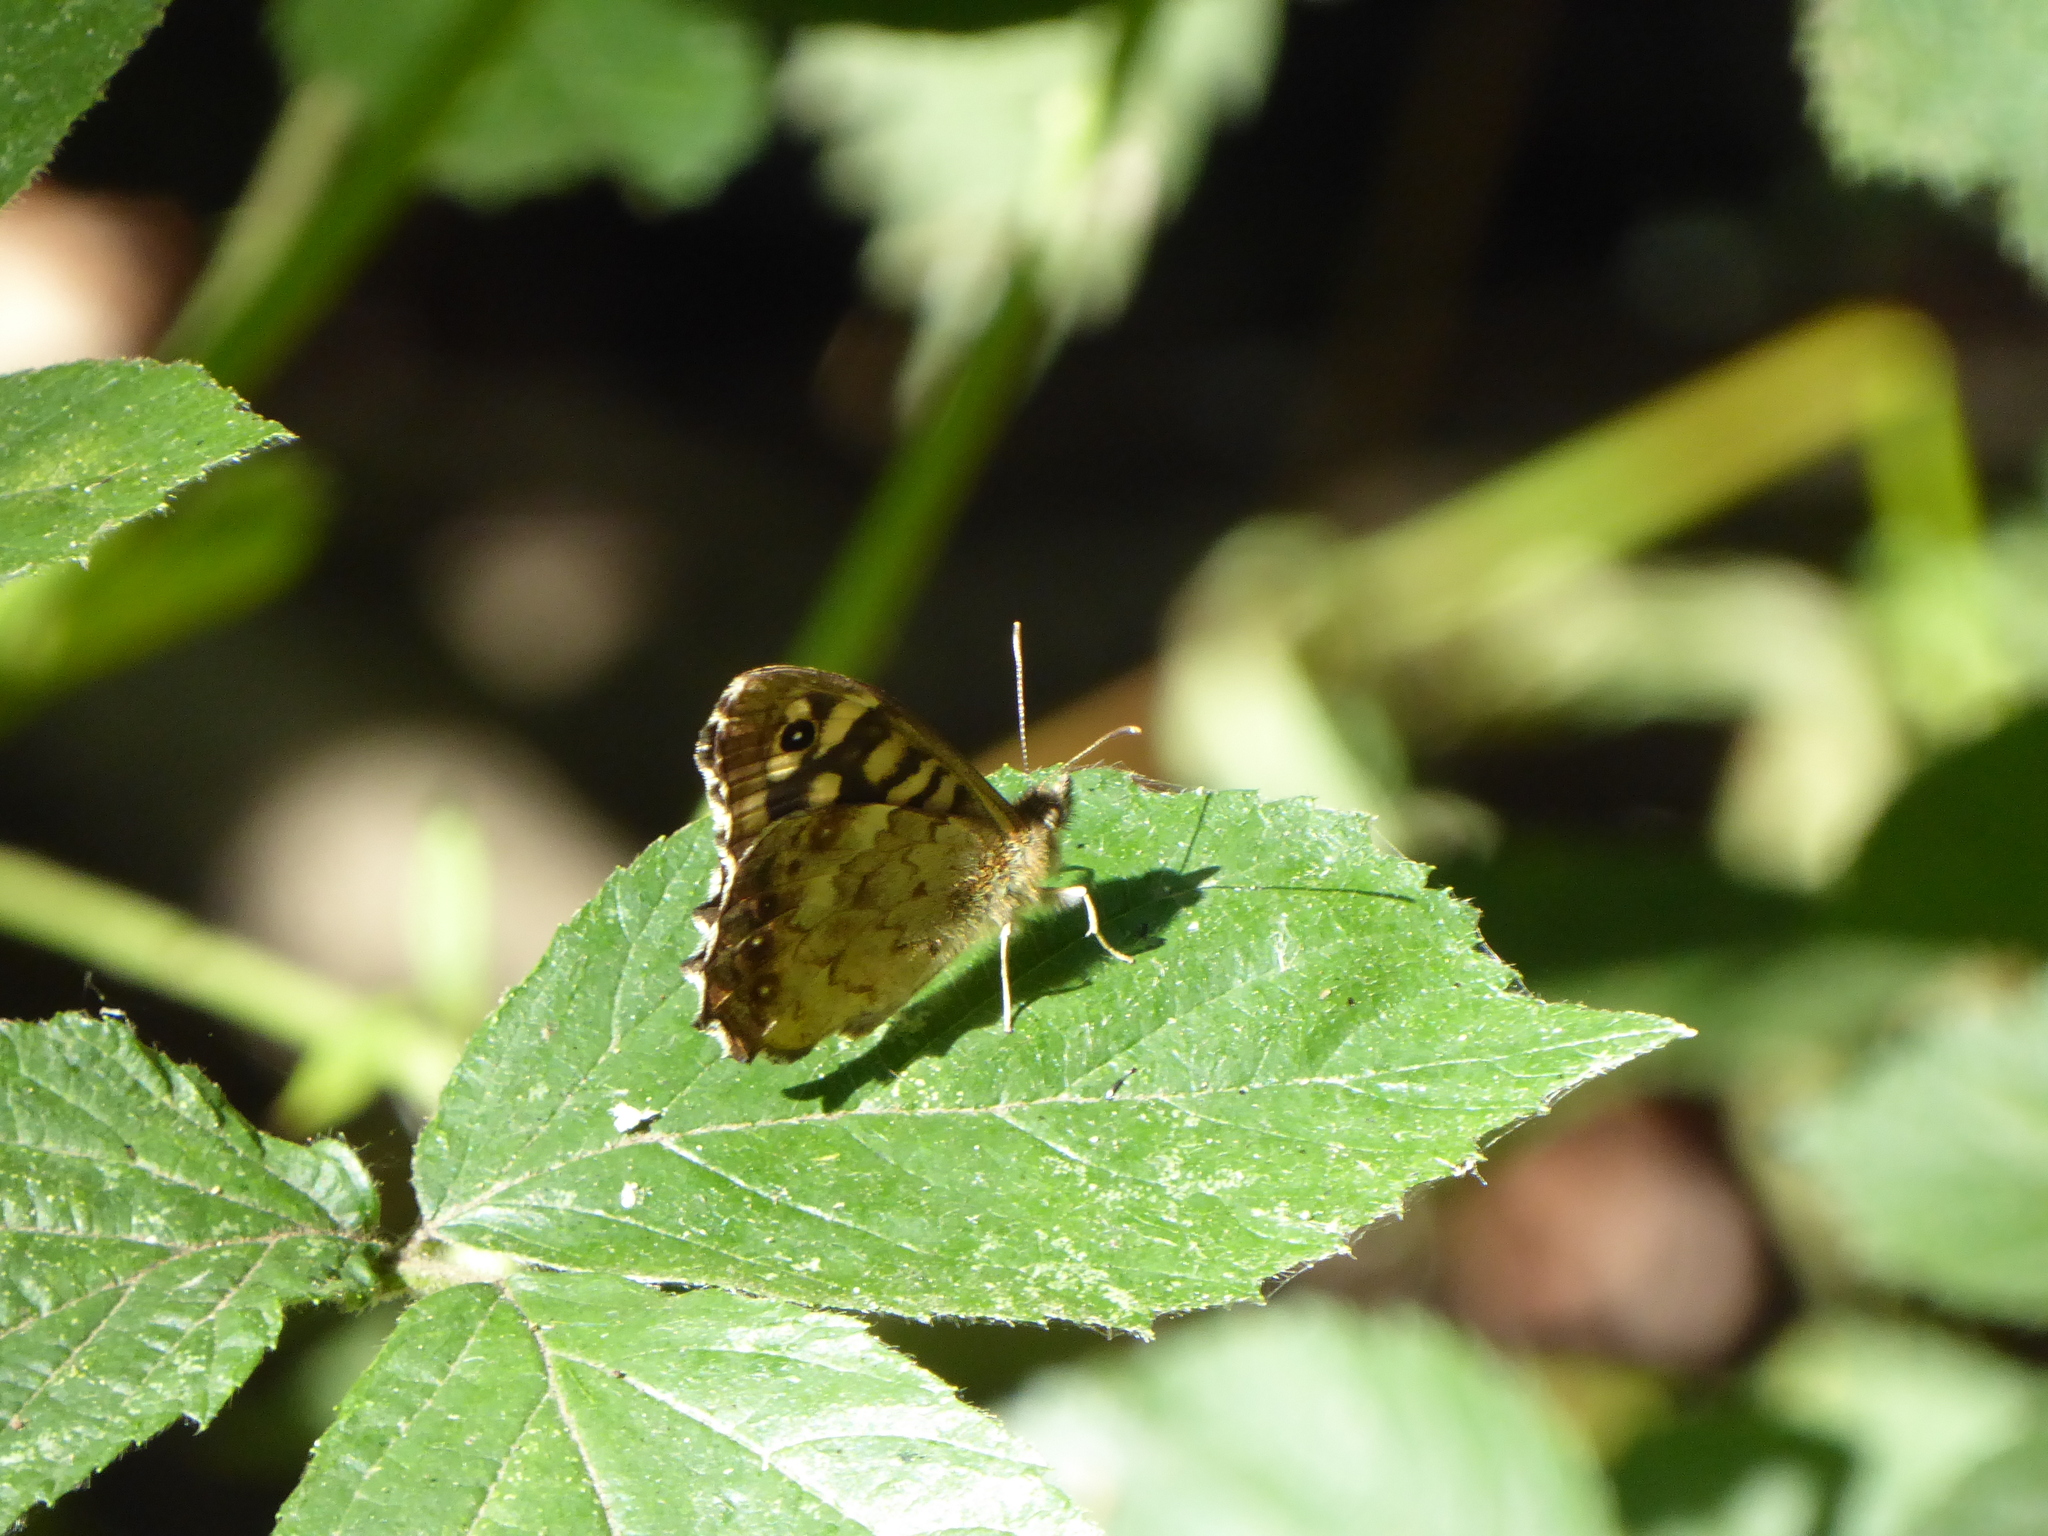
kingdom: Animalia
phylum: Arthropoda
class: Insecta
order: Lepidoptera
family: Nymphalidae
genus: Pararge
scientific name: Pararge aegeria
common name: Speckled wood
